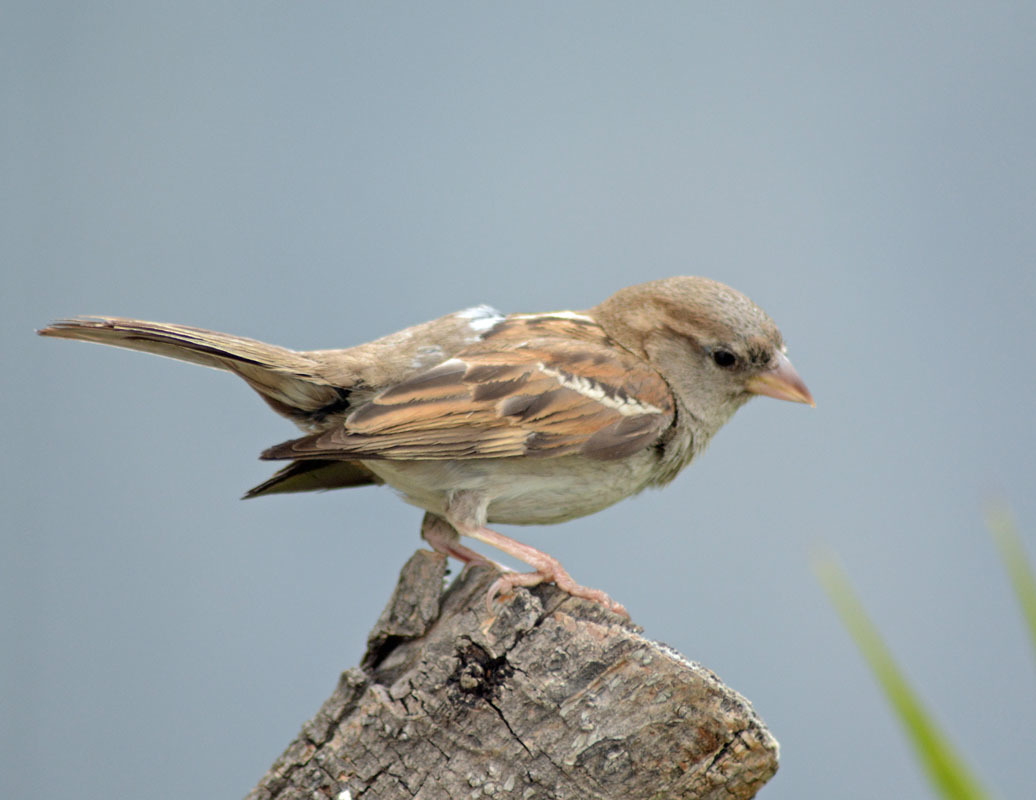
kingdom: Animalia
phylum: Chordata
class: Aves
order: Passeriformes
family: Passeridae
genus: Passer
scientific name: Passer domesticus
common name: House sparrow
